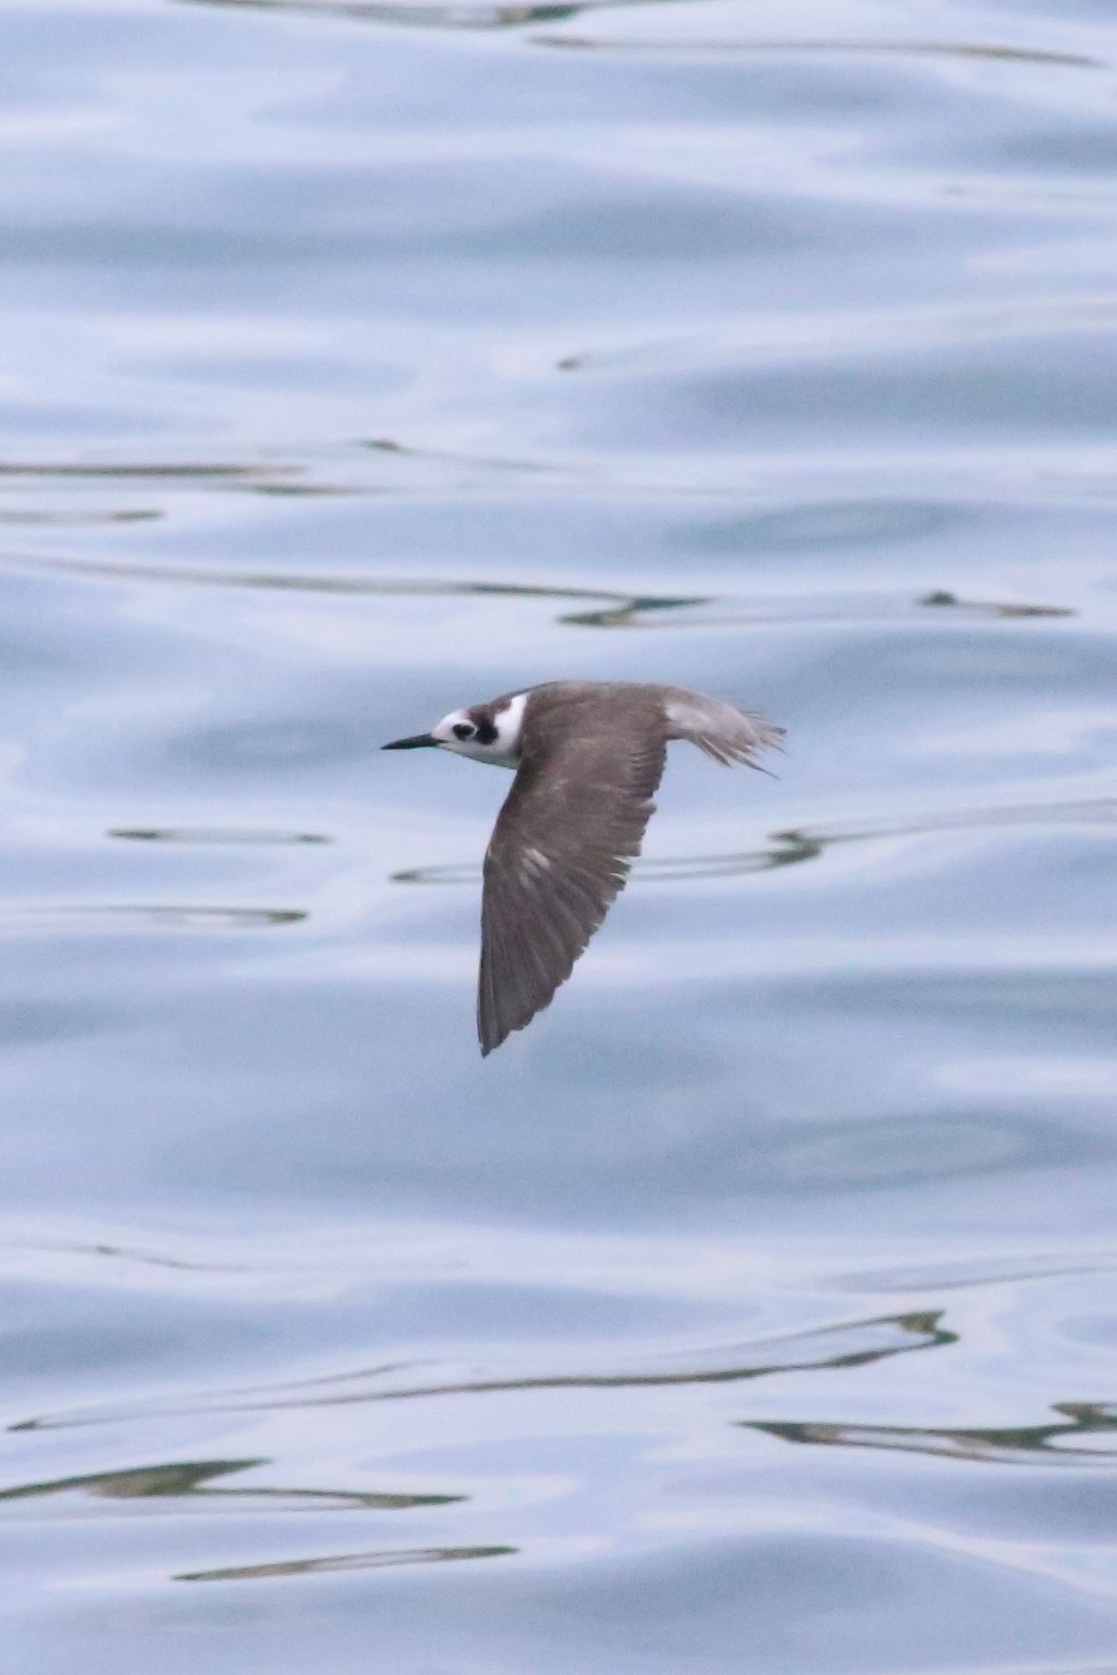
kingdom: Animalia
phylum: Chordata
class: Aves
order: Charadriiformes
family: Laridae
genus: Chlidonias
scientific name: Chlidonias niger
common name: Black tern
